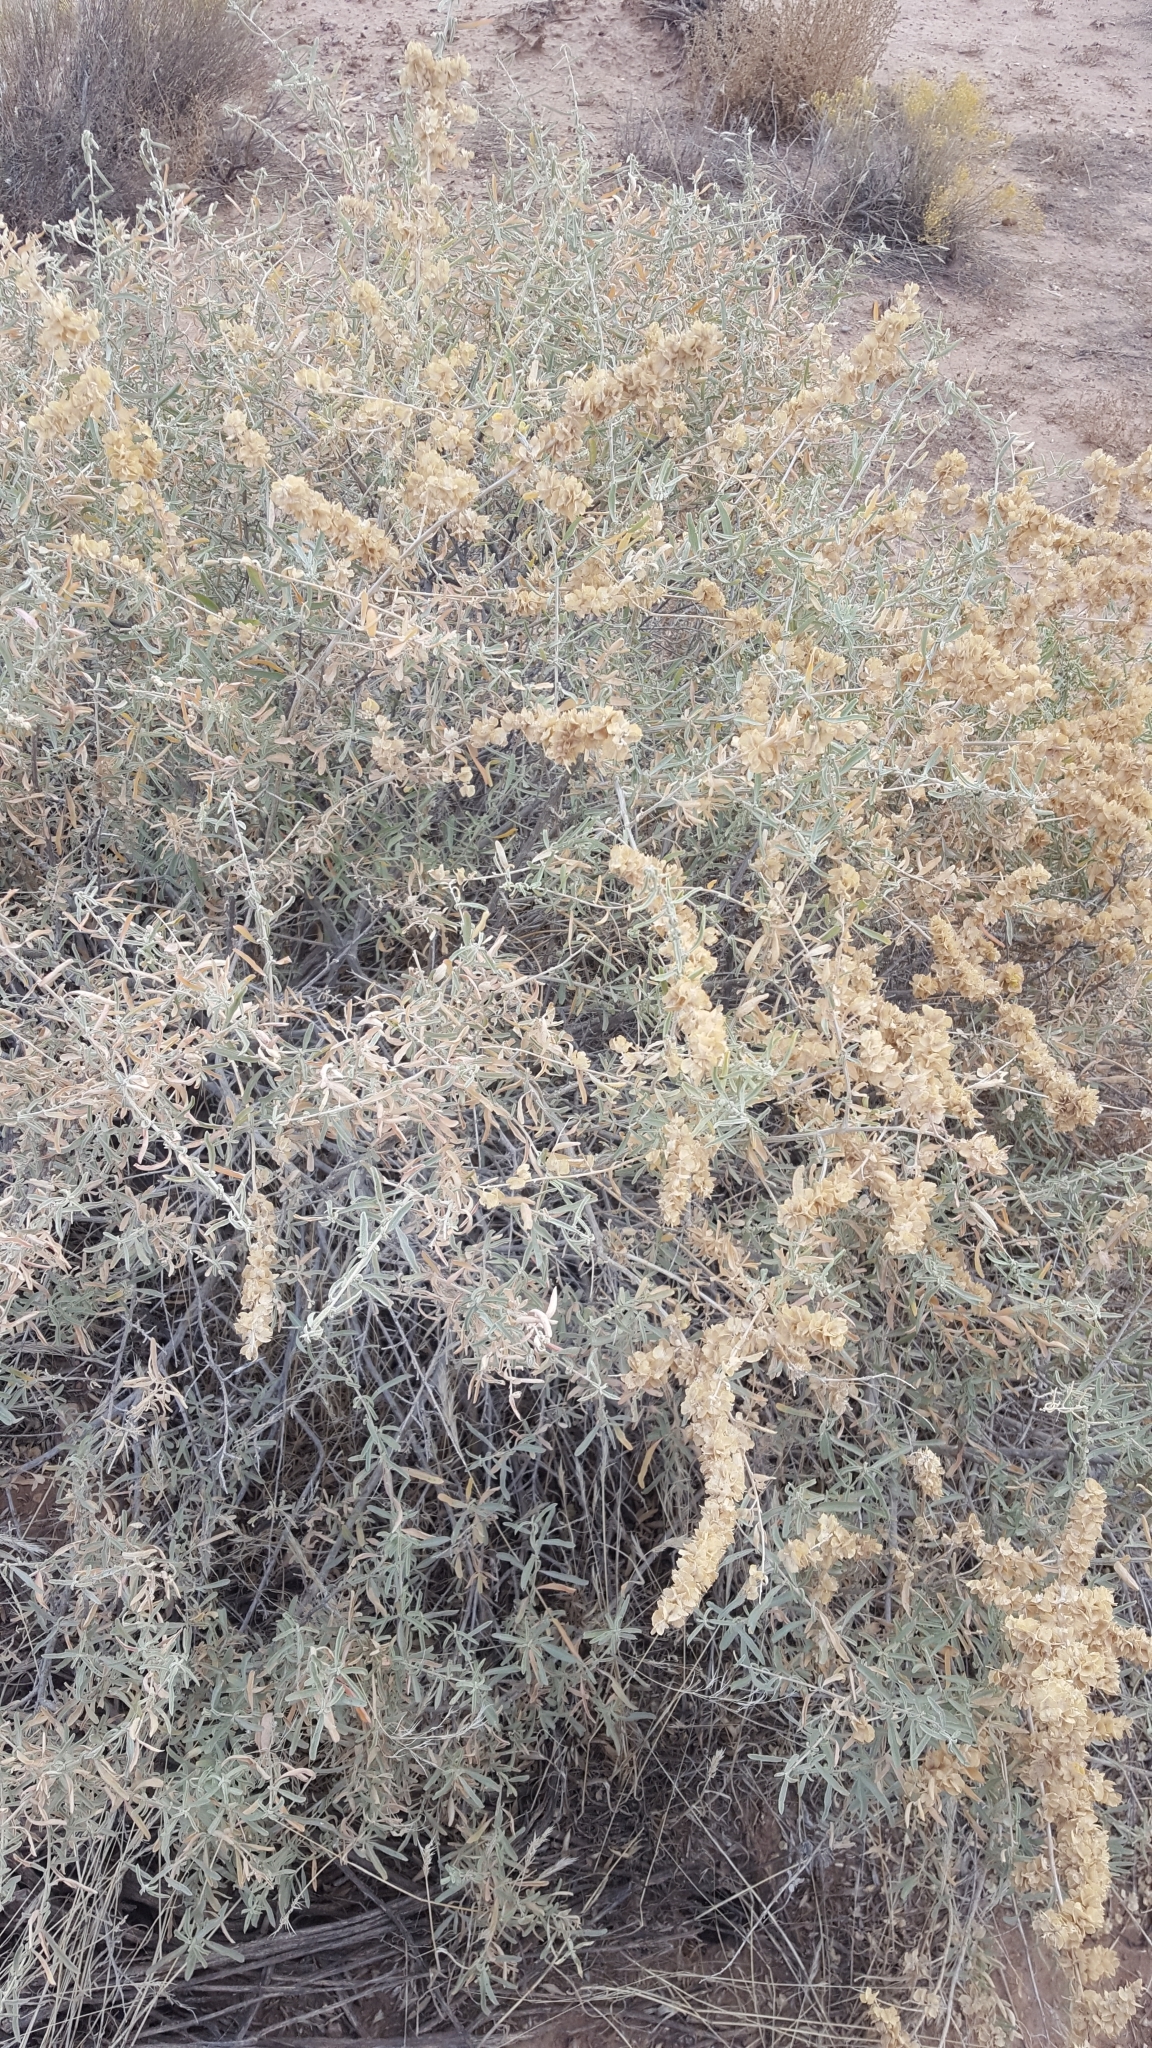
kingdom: Plantae
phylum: Tracheophyta
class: Magnoliopsida
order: Caryophyllales
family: Amaranthaceae
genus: Atriplex
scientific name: Atriplex canescens
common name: Four-wing saltbush
